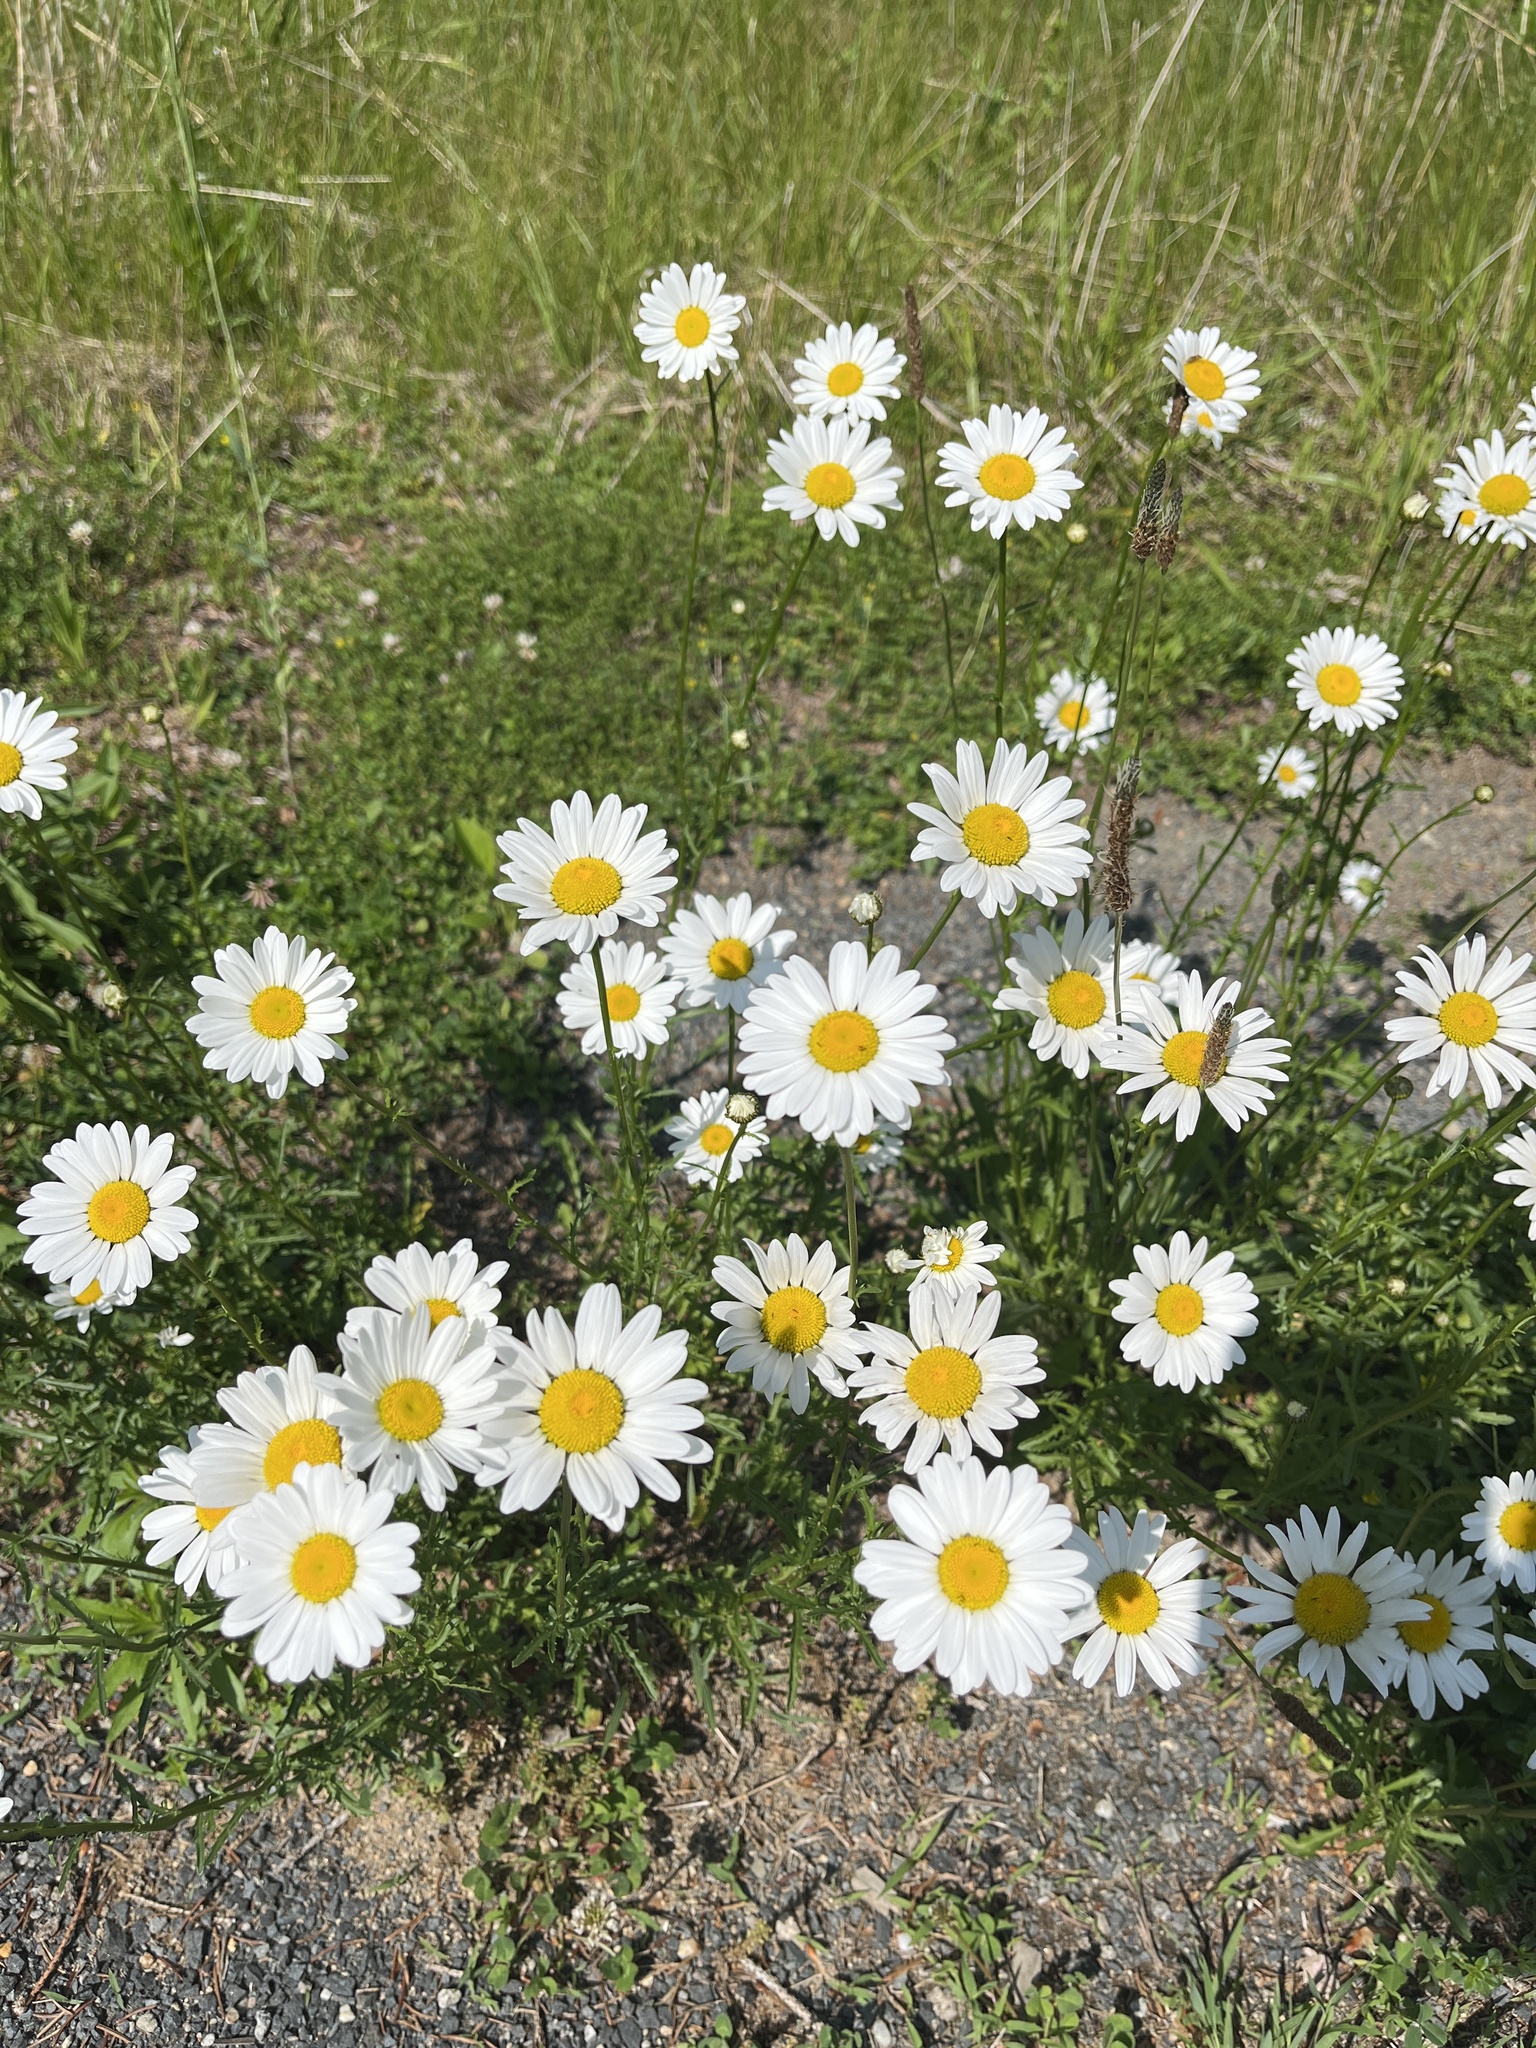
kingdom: Plantae
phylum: Tracheophyta
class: Magnoliopsida
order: Asterales
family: Asteraceae
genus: Leucanthemum
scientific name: Leucanthemum vulgare
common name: Oxeye daisy
